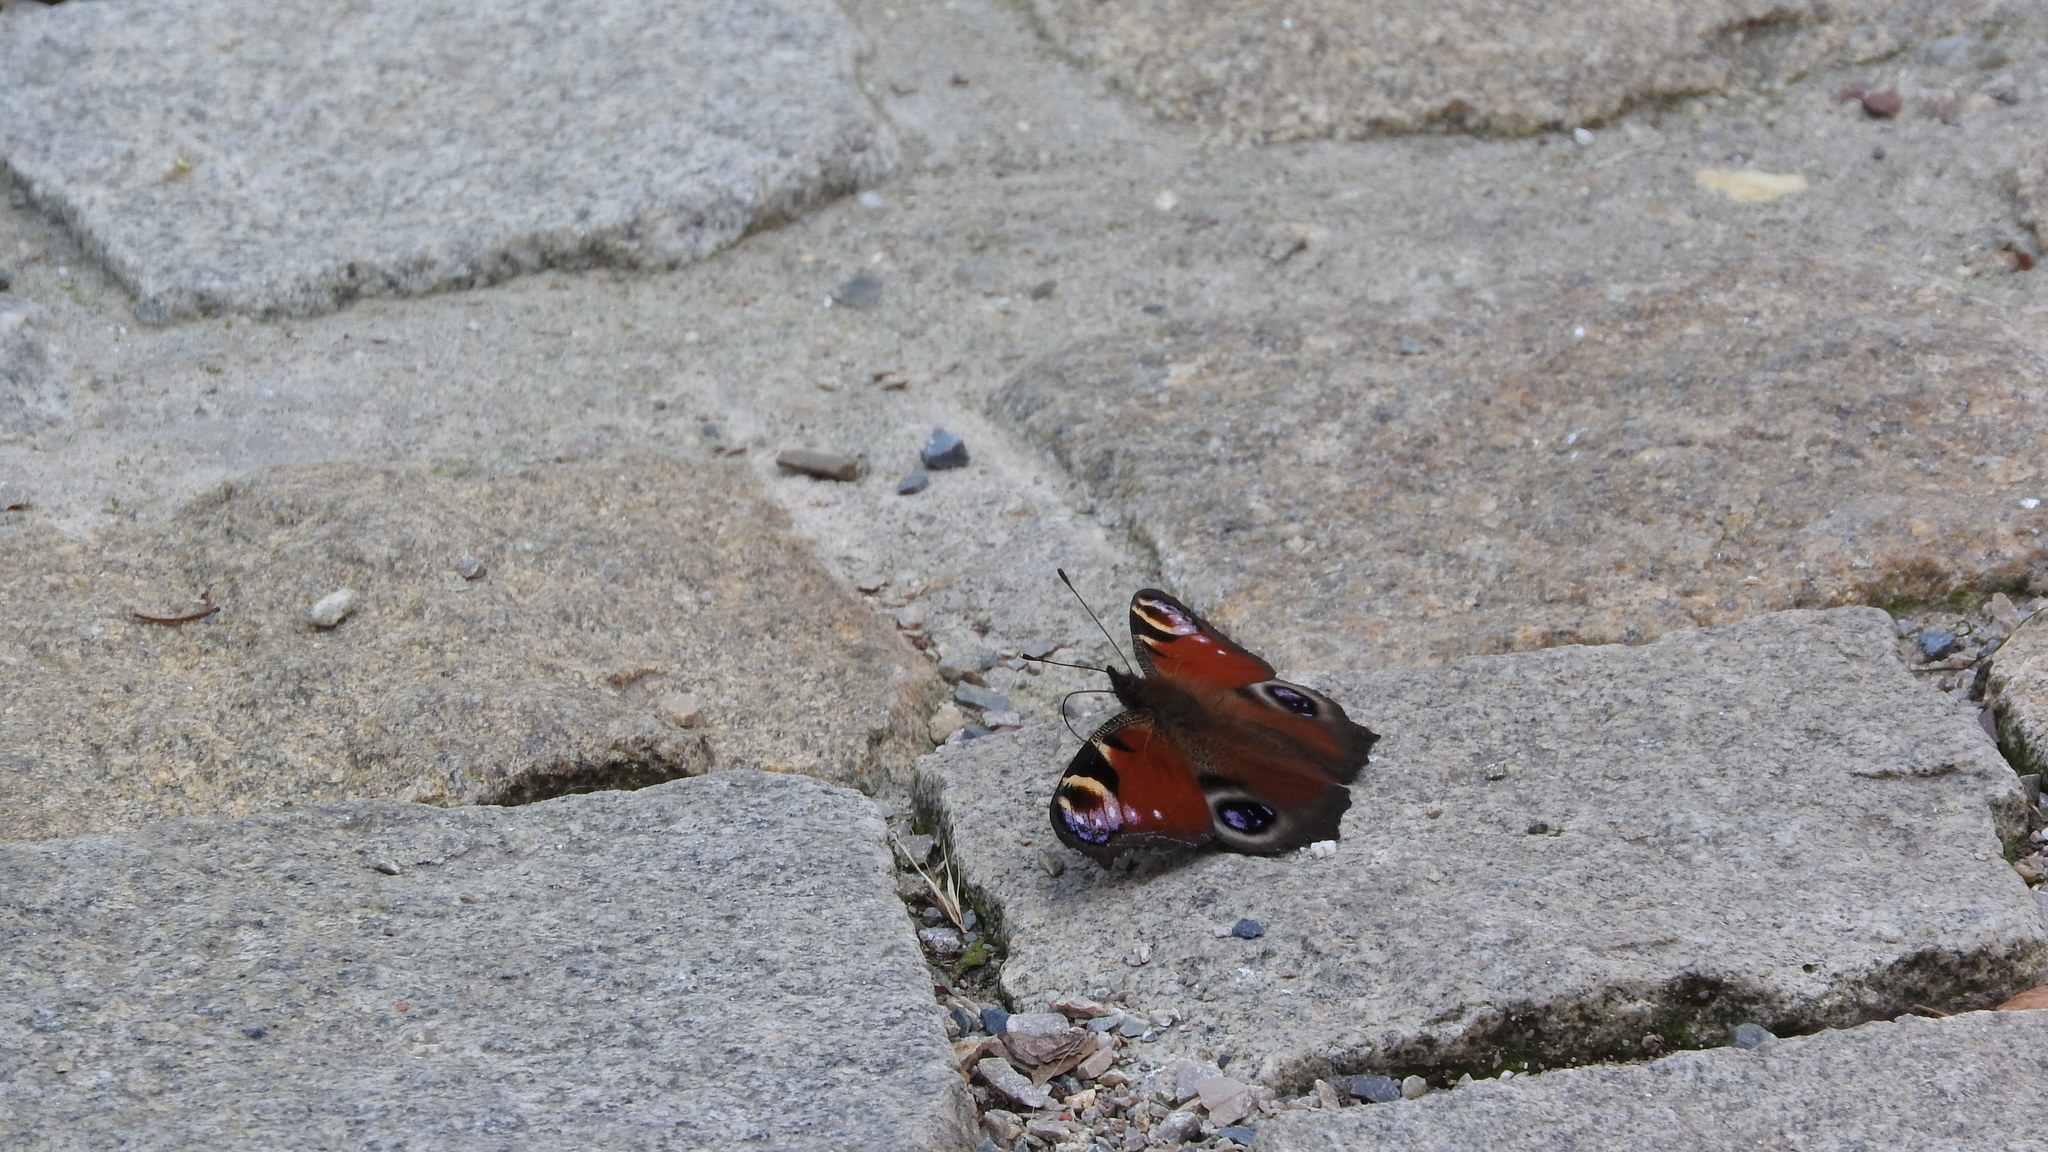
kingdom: Animalia
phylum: Arthropoda
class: Insecta
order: Lepidoptera
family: Nymphalidae
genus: Aglais
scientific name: Aglais io
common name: Peacock
